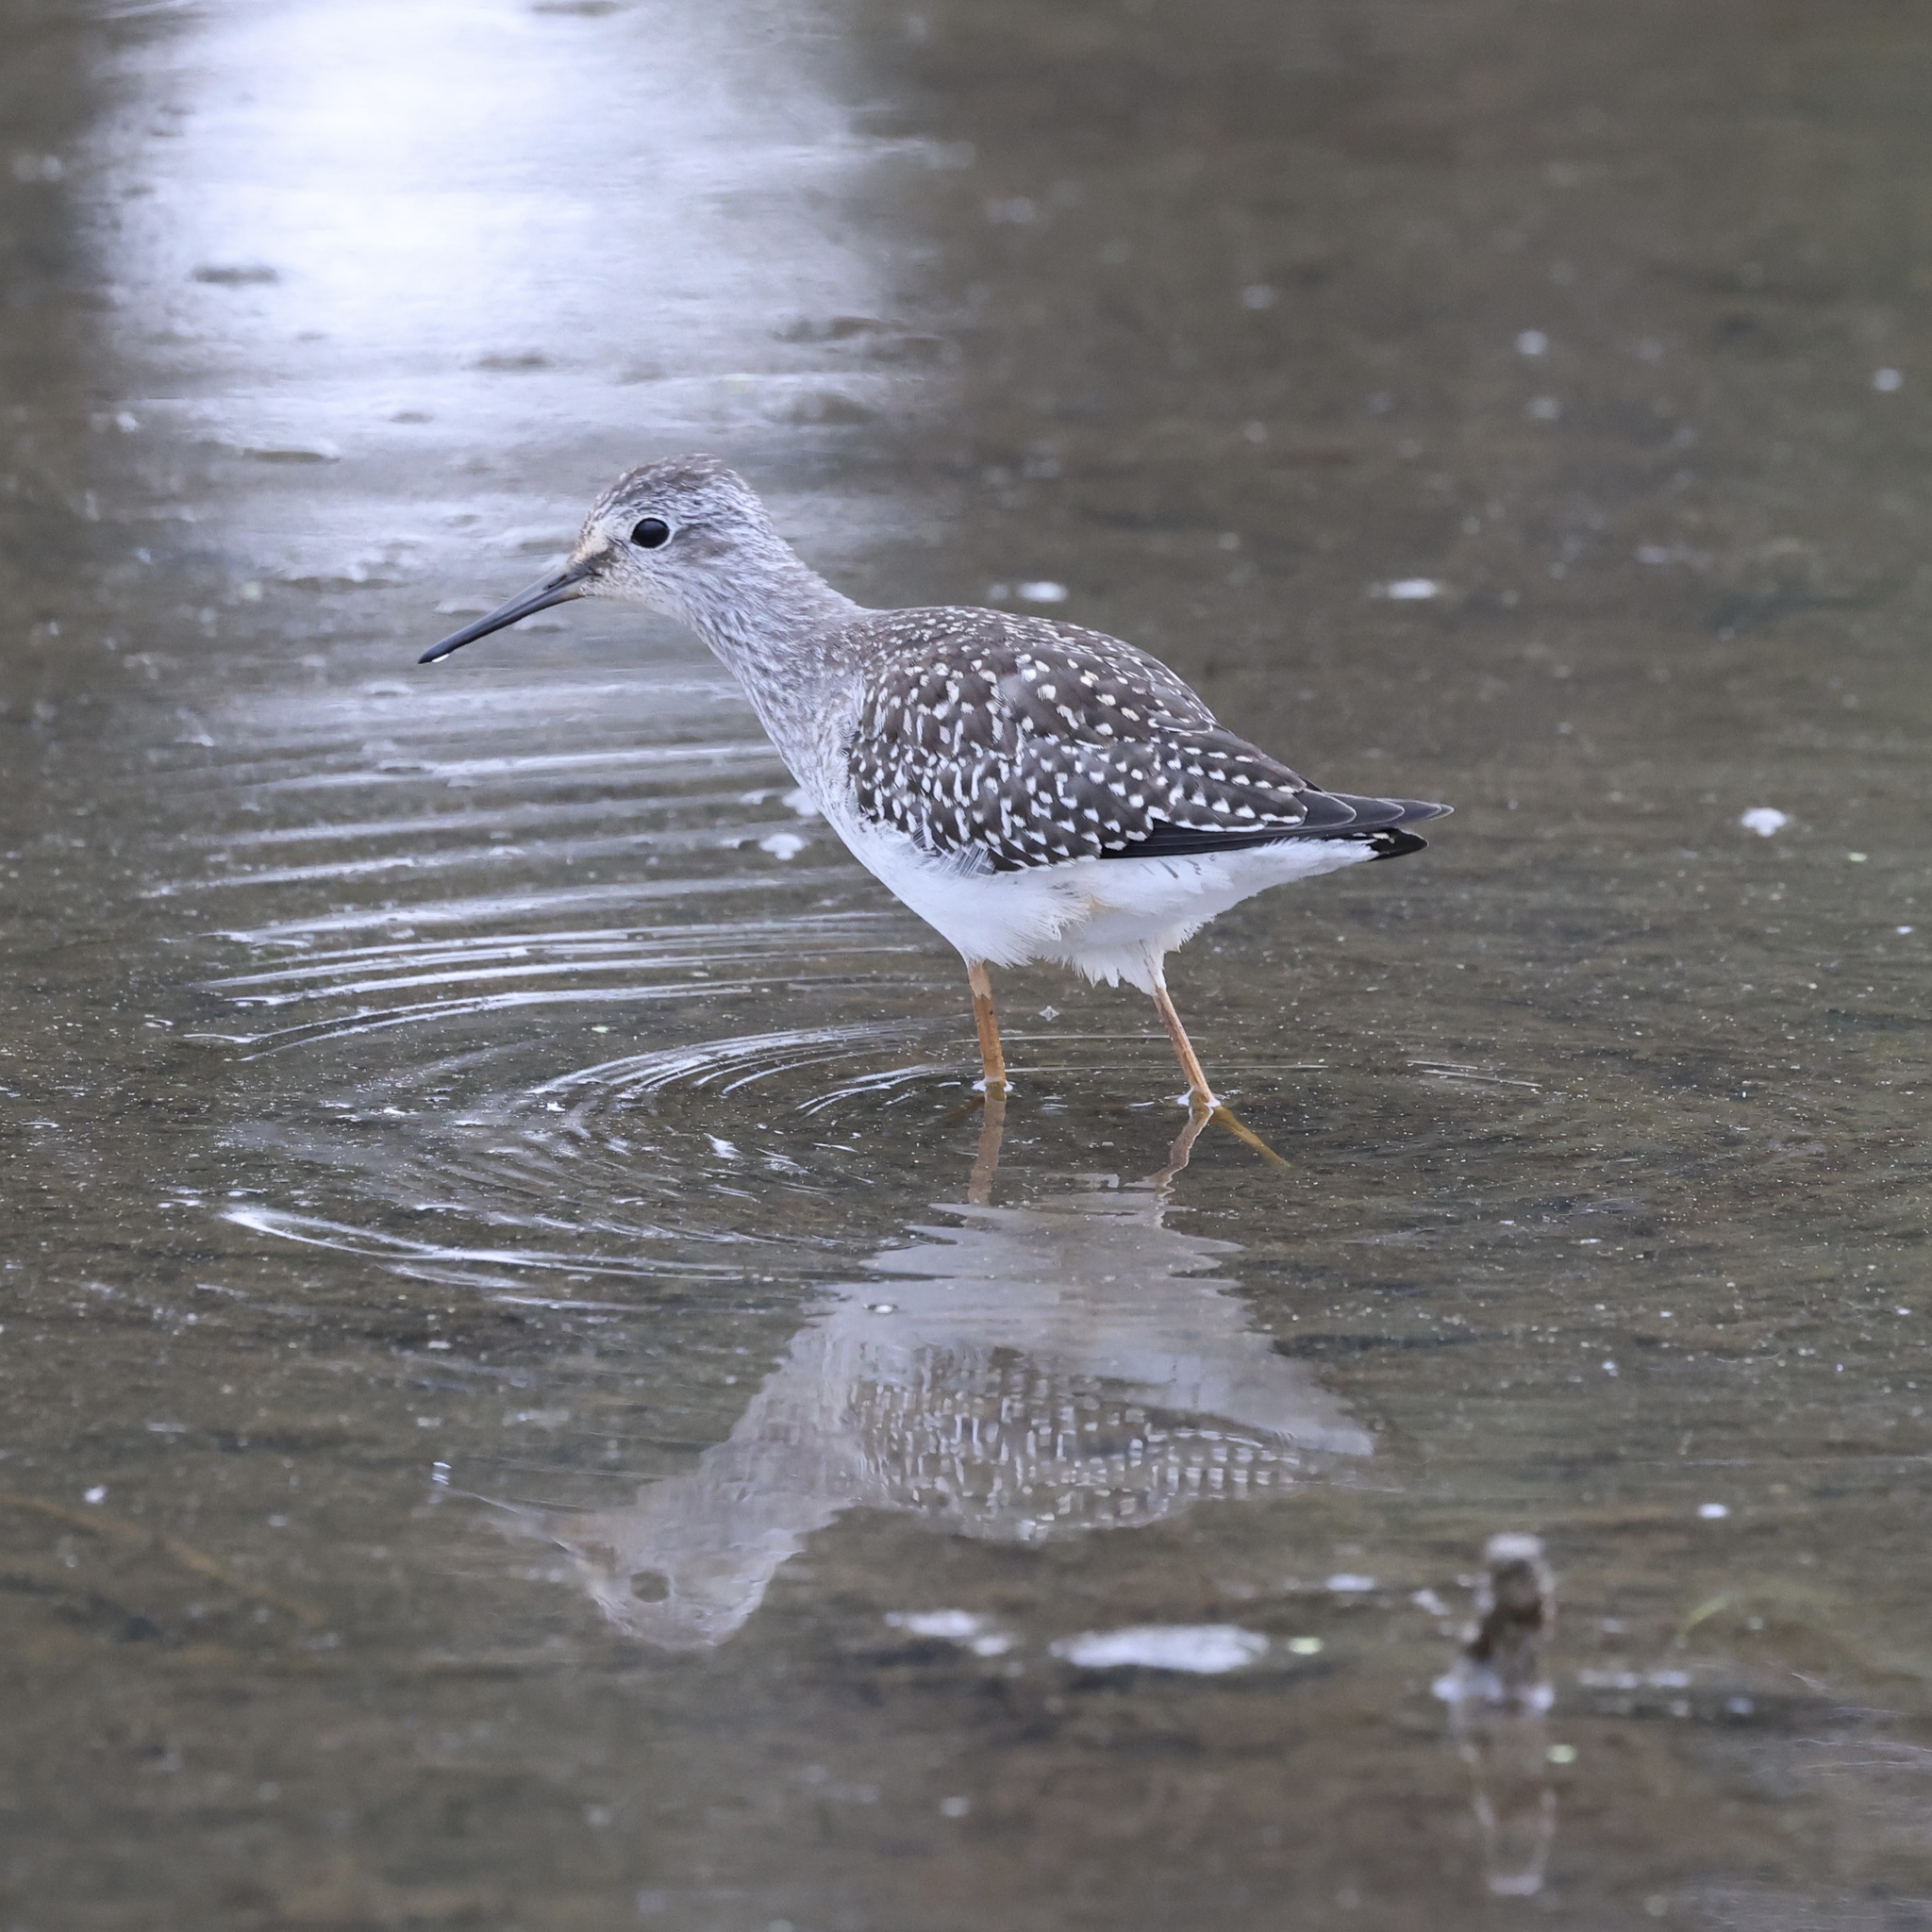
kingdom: Animalia
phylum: Chordata
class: Aves
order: Charadriiformes
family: Scolopacidae
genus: Tringa
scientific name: Tringa flavipes
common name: Lesser yellowlegs
